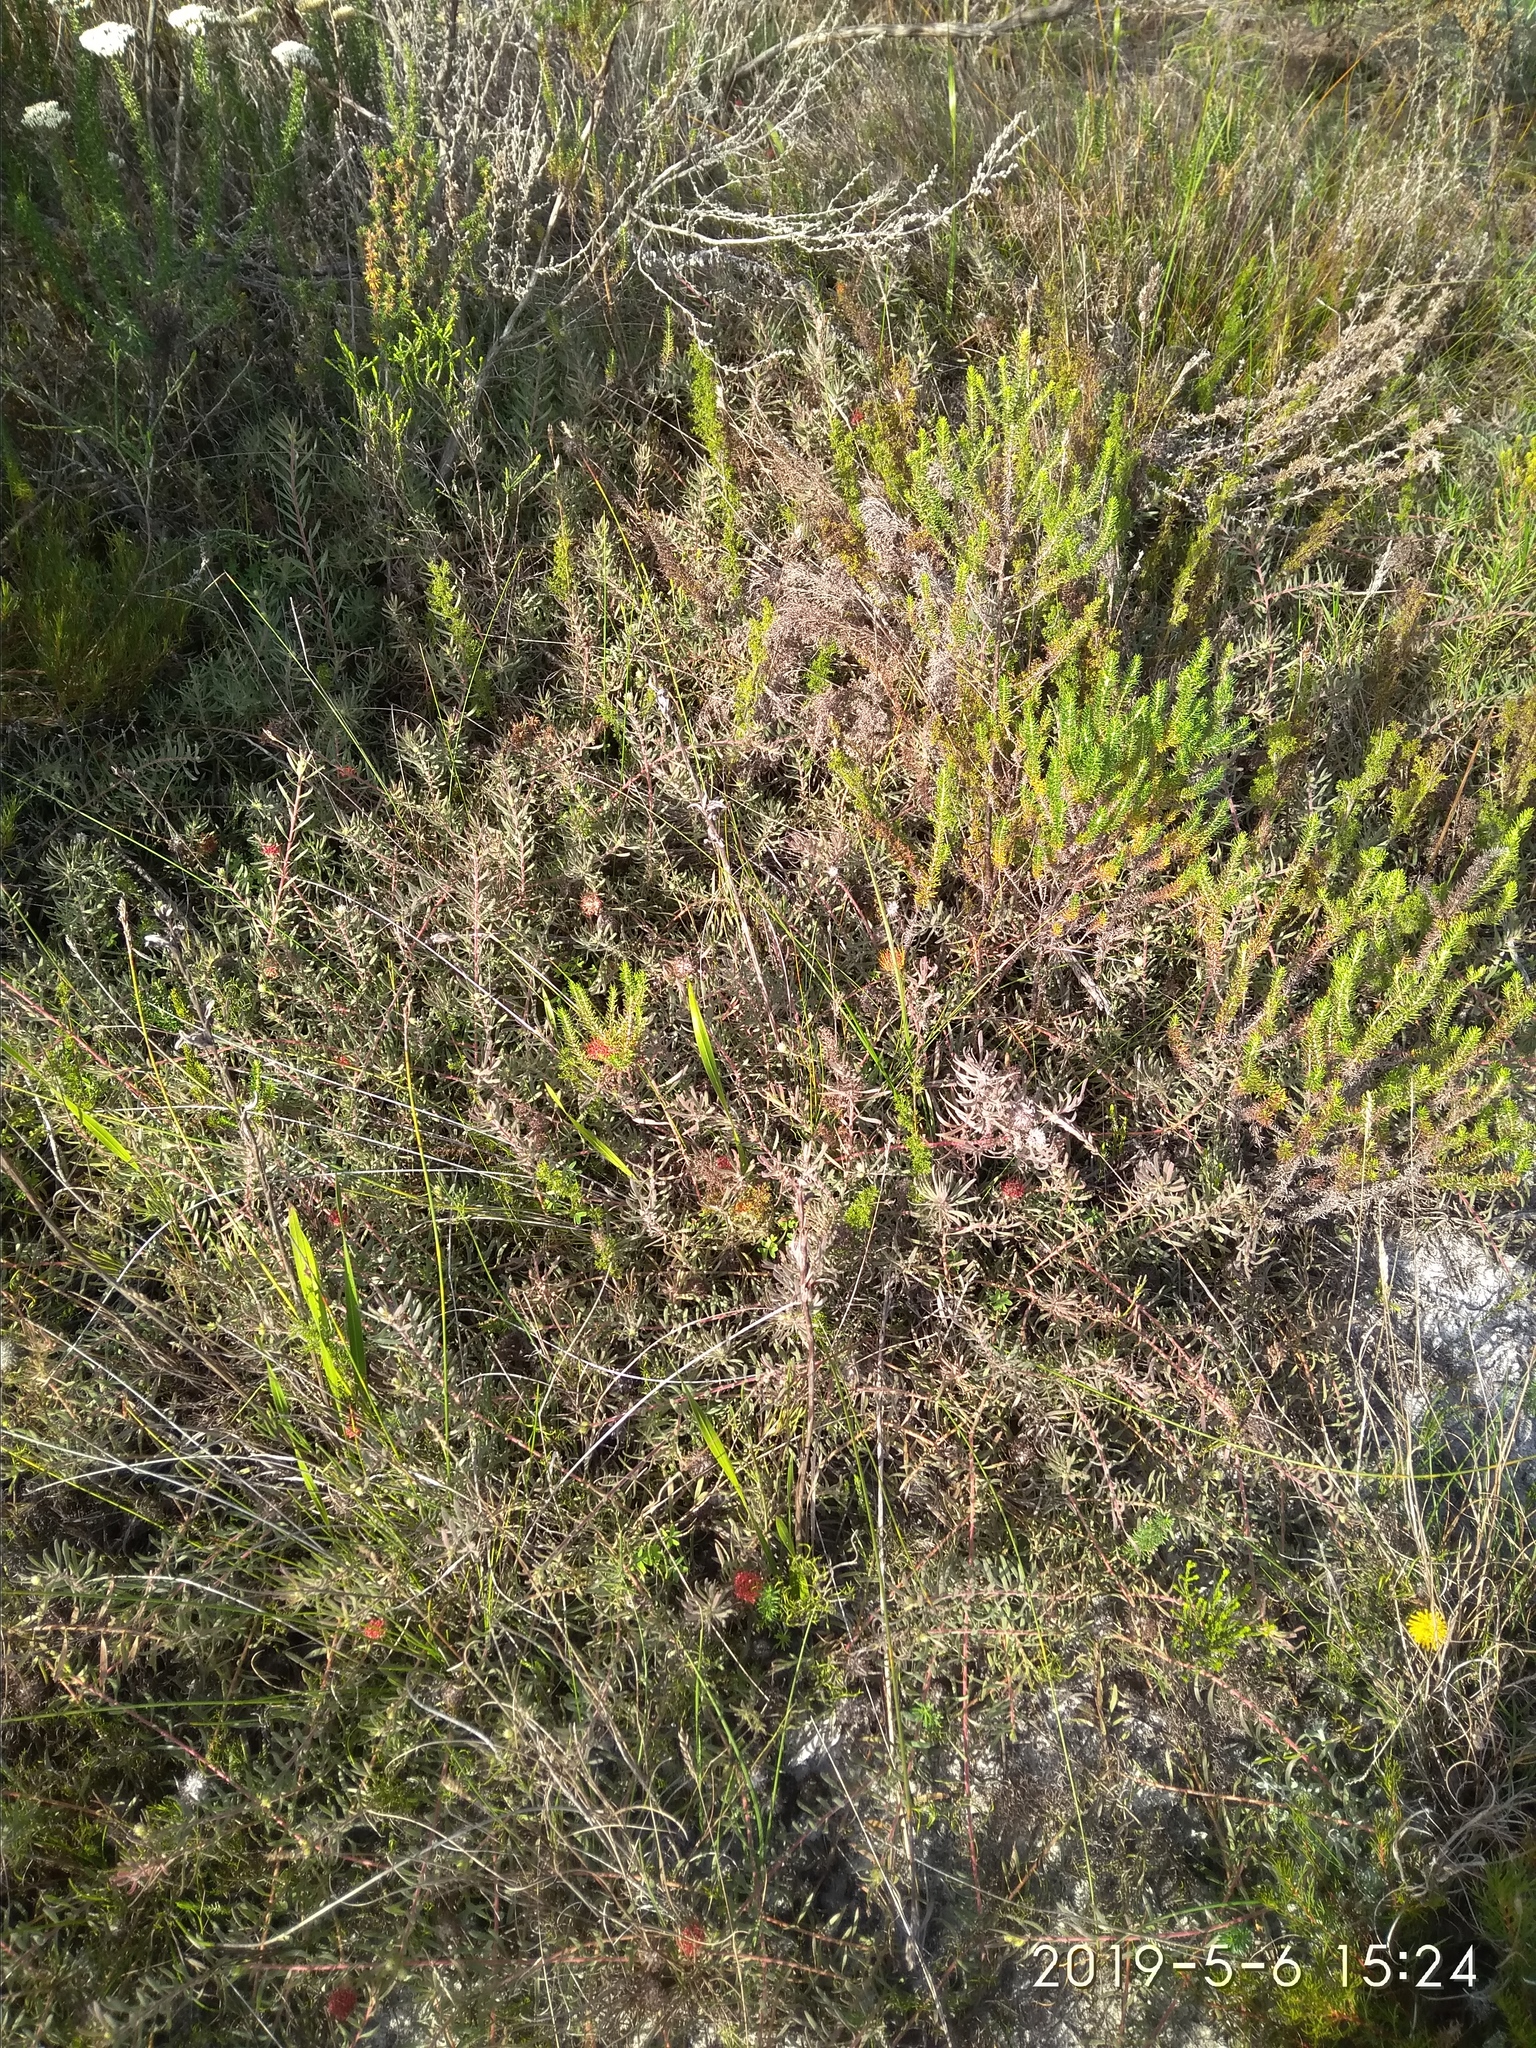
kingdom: Plantae
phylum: Tracheophyta
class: Magnoliopsida
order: Proteales
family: Proteaceae
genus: Leucospermum
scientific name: Leucospermum prostratum
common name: Yellow-trailing pincushion
